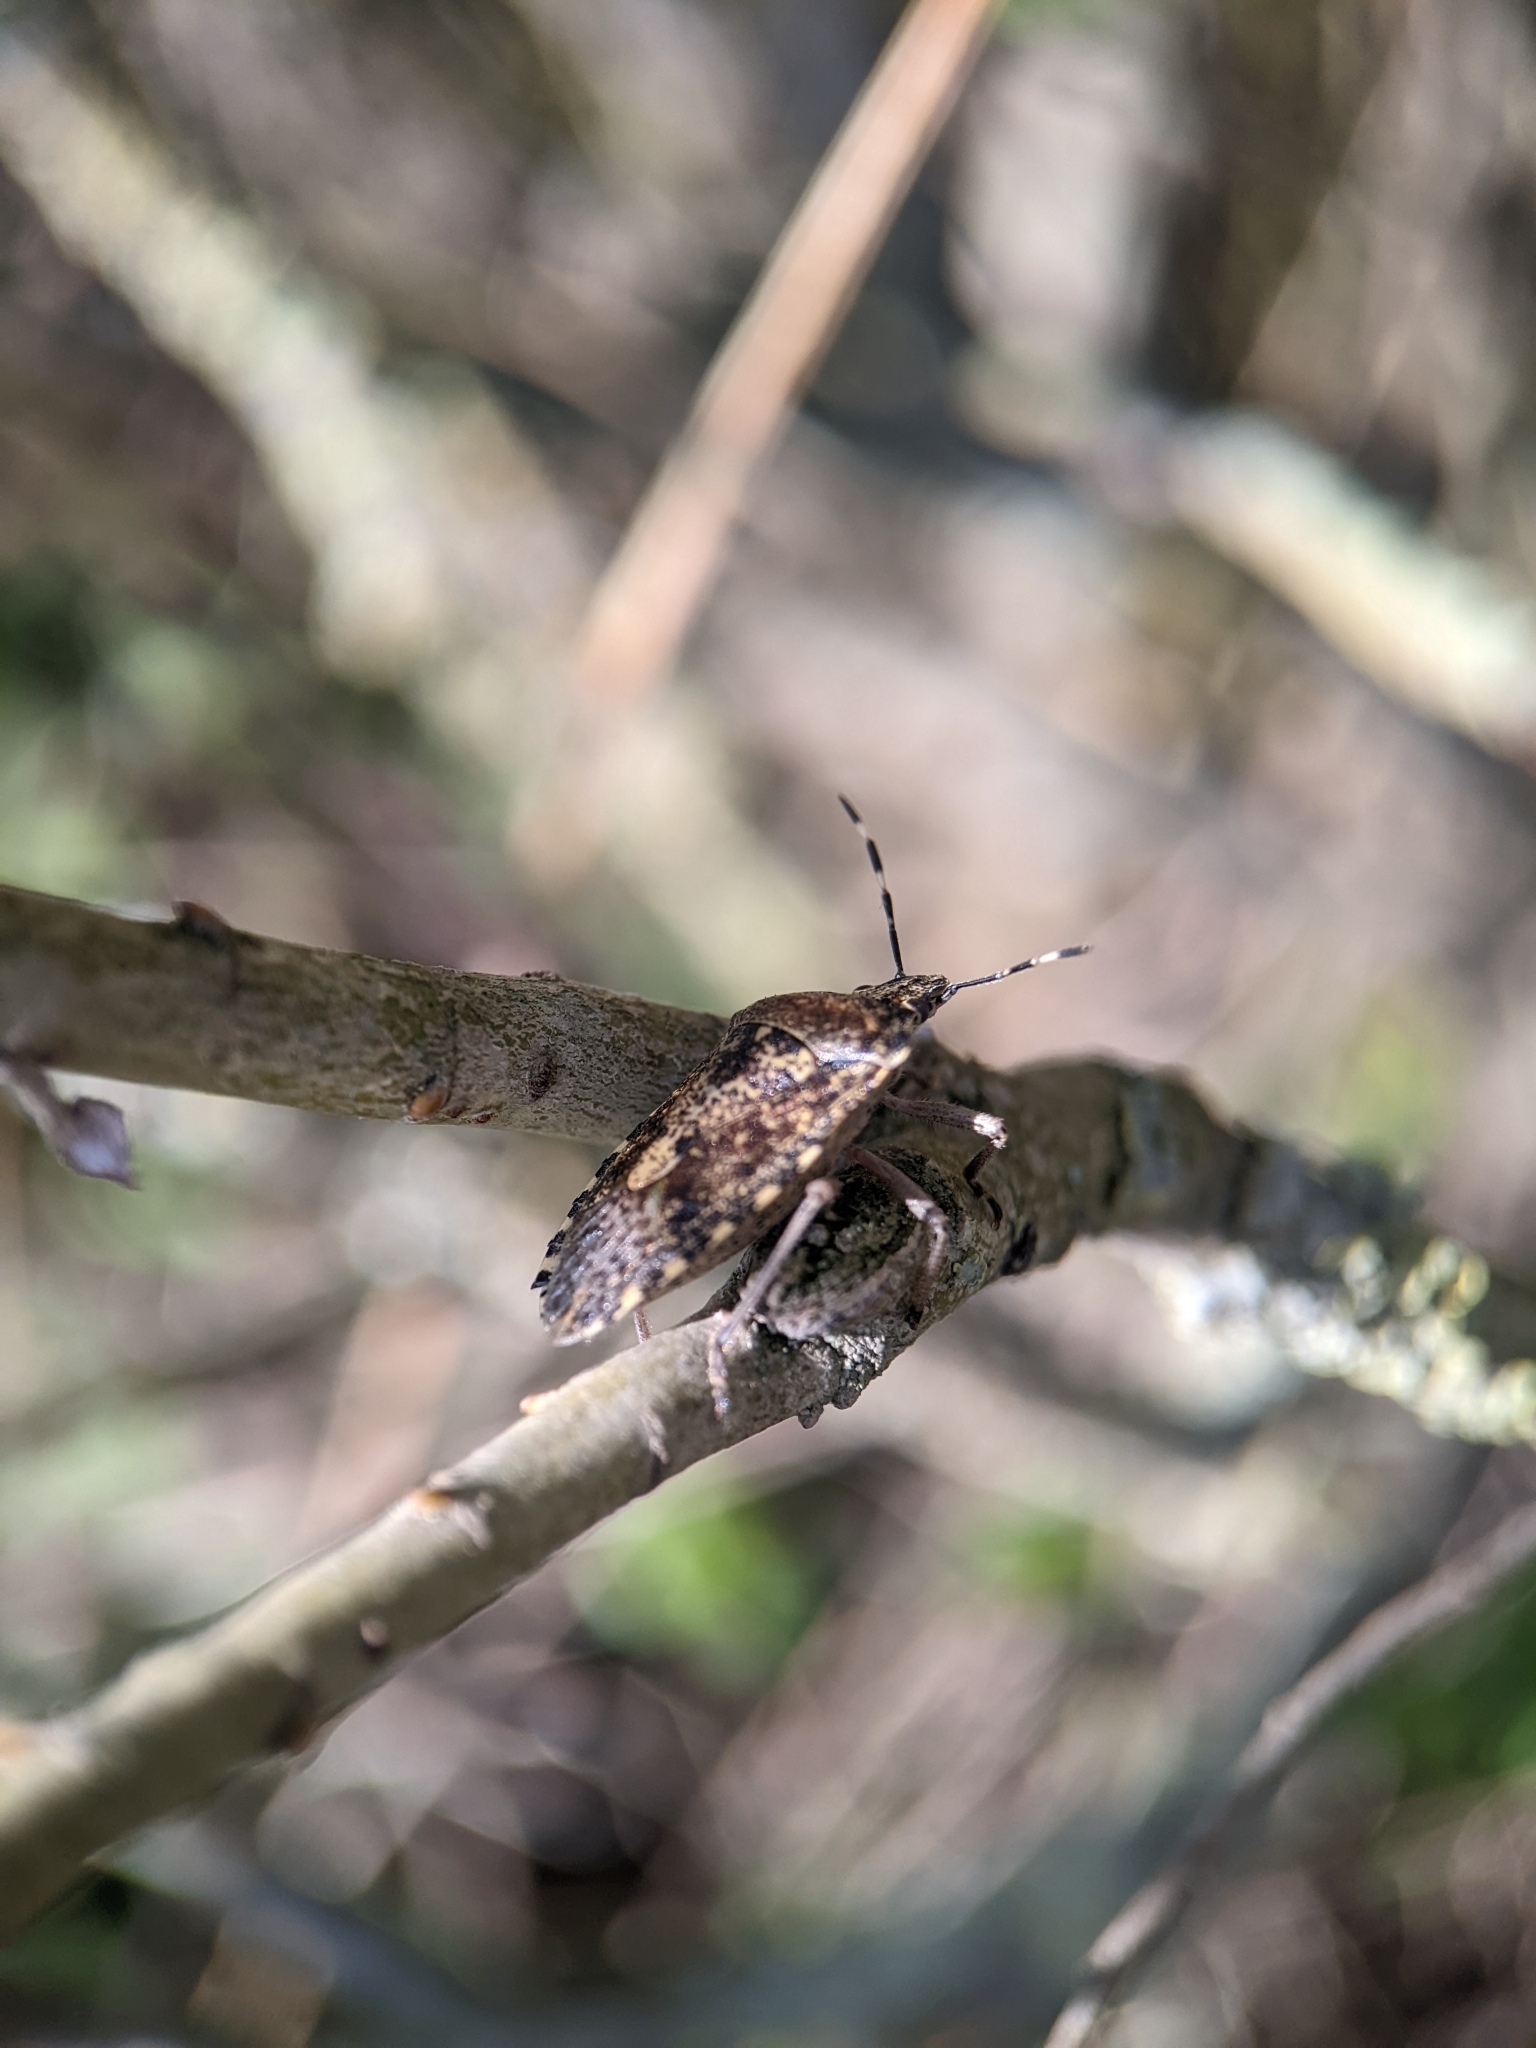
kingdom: Animalia
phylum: Arthropoda
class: Insecta
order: Hemiptera
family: Pentatomidae
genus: Rhaphigaster
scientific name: Rhaphigaster nebulosa
